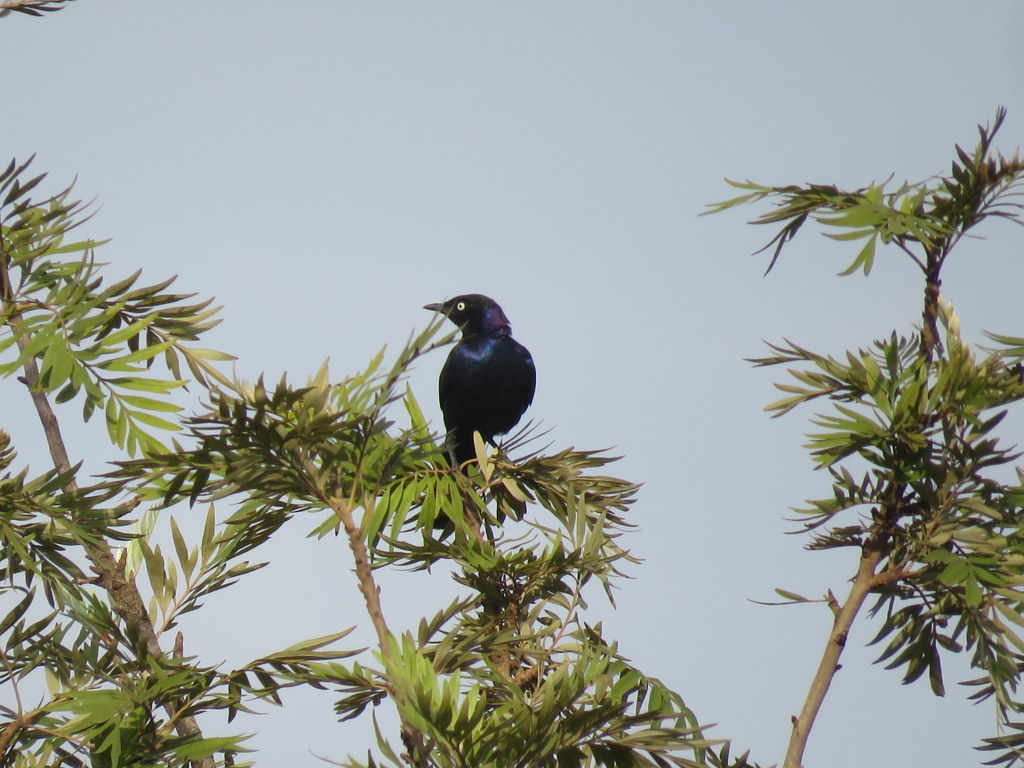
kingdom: Animalia
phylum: Chordata
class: Aves
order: Passeriformes
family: Sturnidae
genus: Lamprotornis
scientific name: Lamprotornis purpuroptera
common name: Rüppell's starling
